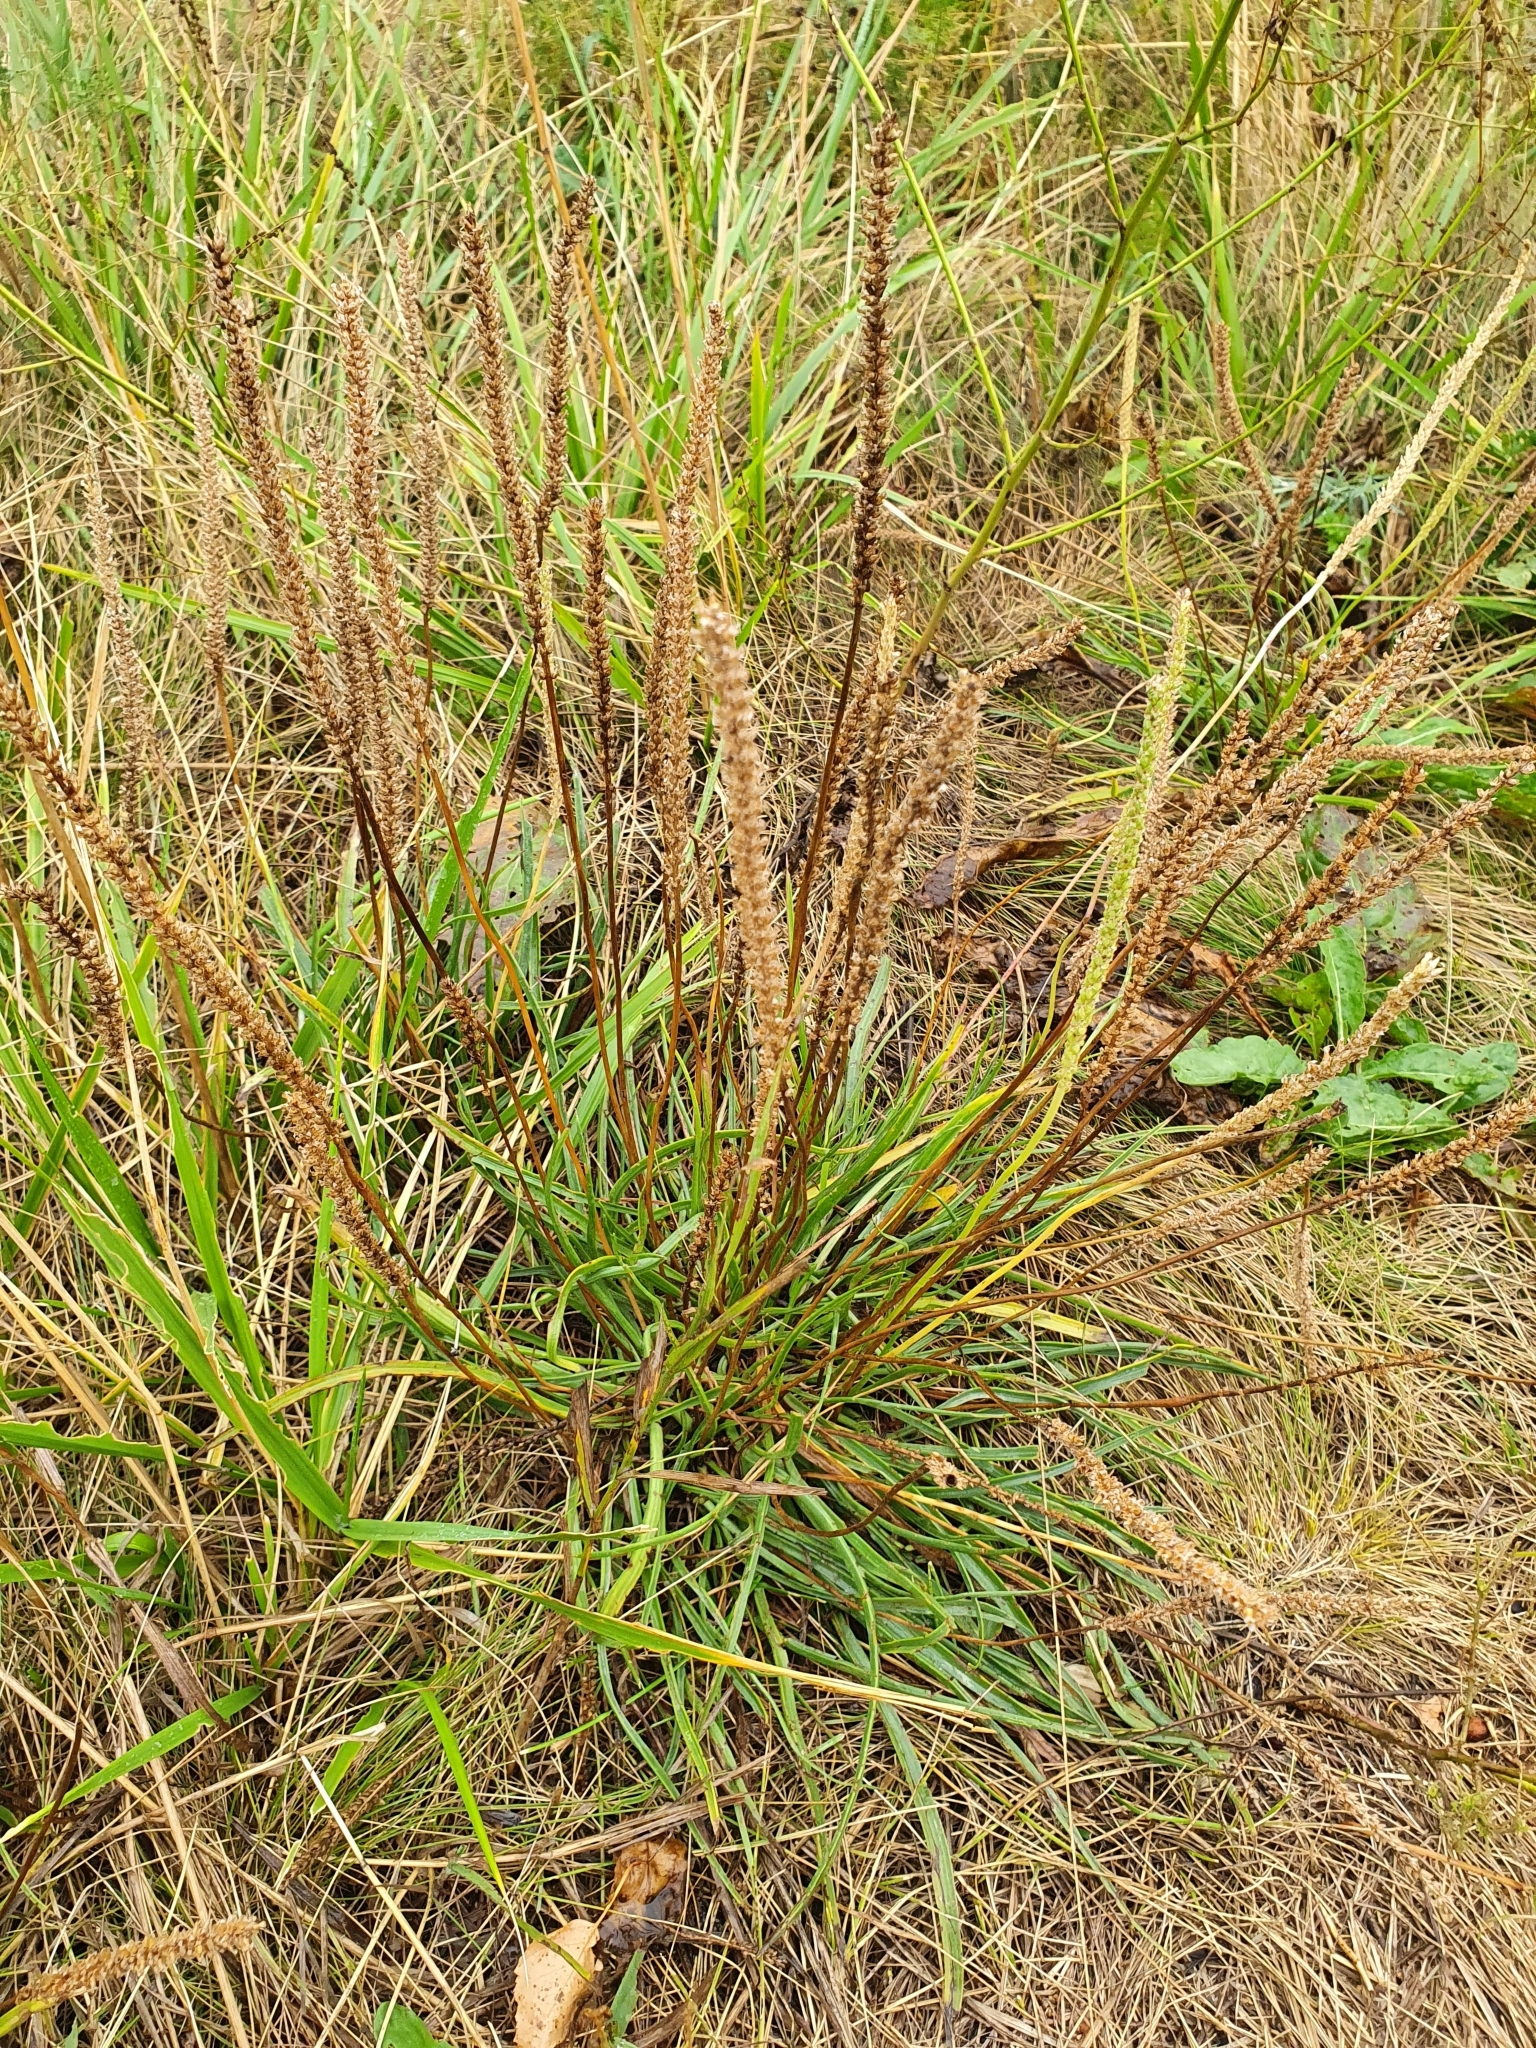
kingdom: Plantae
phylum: Tracheophyta
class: Magnoliopsida
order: Lamiales
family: Plantaginaceae
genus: Plantago
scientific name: Plantago salsa
